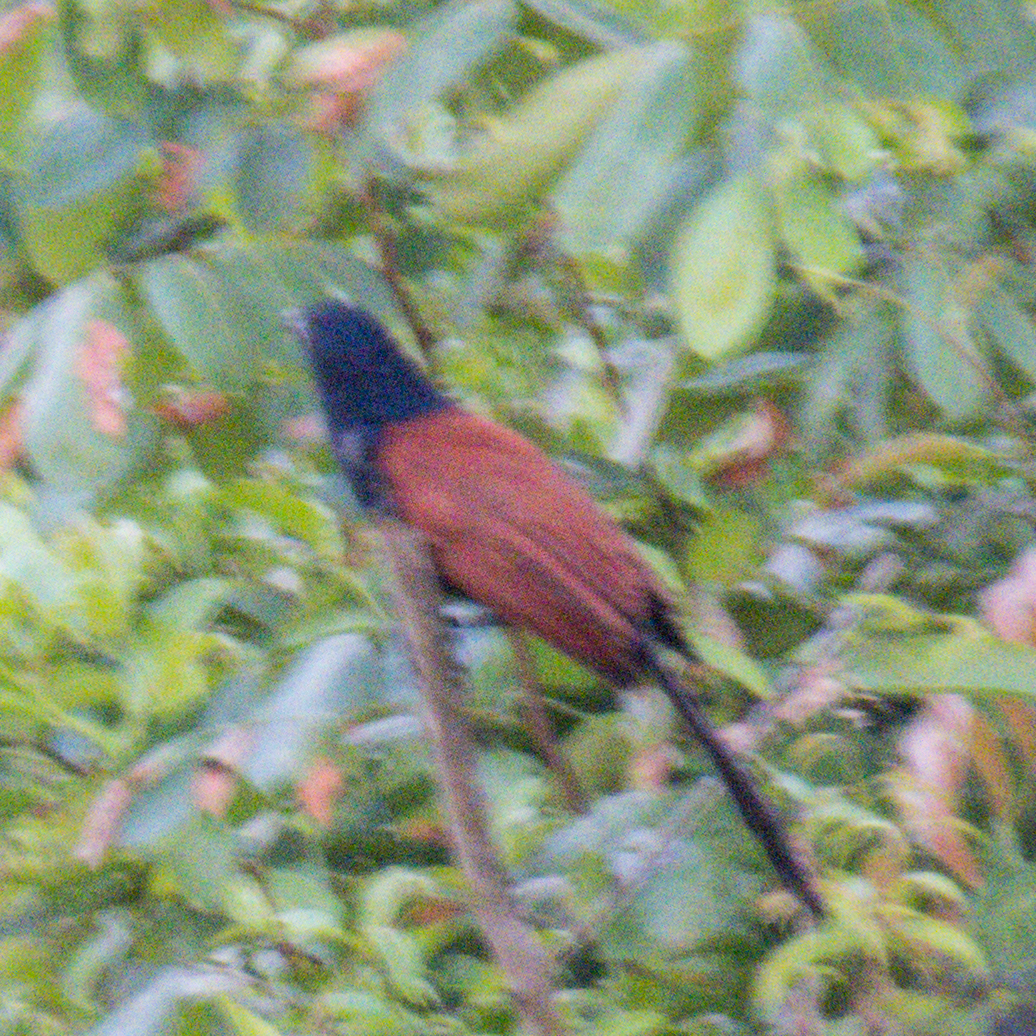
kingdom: Animalia
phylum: Chordata
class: Aves
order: Cuculiformes
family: Cuculidae
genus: Centropus
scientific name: Centropus sinensis
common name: Greater coucal
